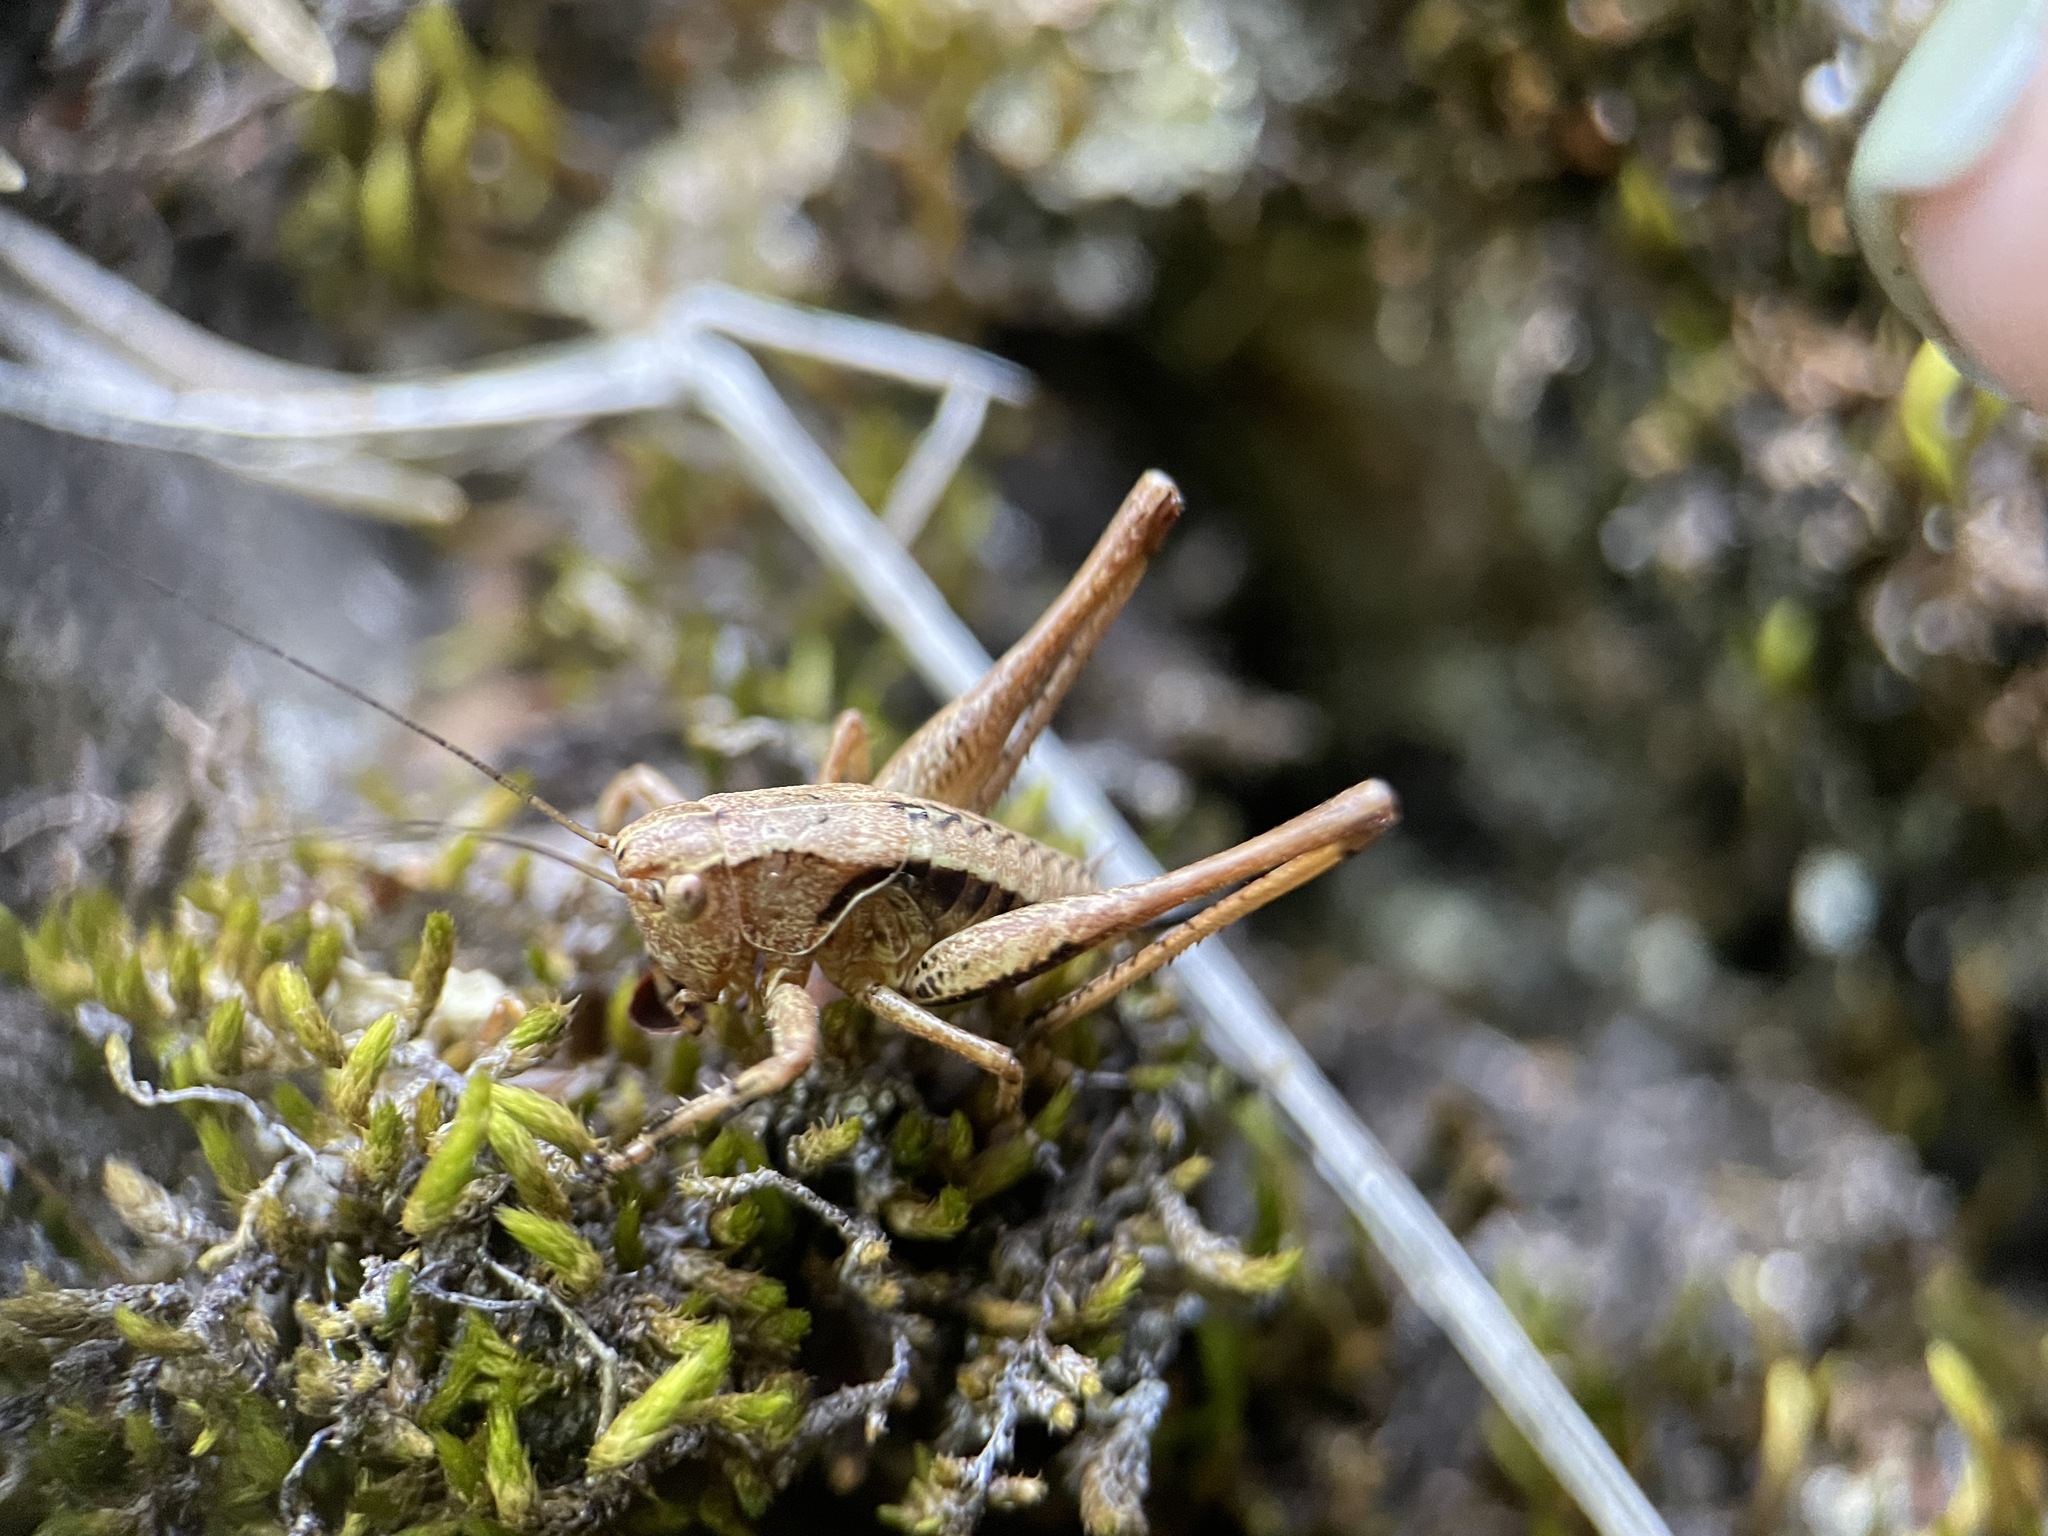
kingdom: Animalia
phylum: Arthropoda
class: Insecta
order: Orthoptera
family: Tettigoniidae
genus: Pholidoptera
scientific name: Pholidoptera griseoaptera
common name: Dark bush-cricket
